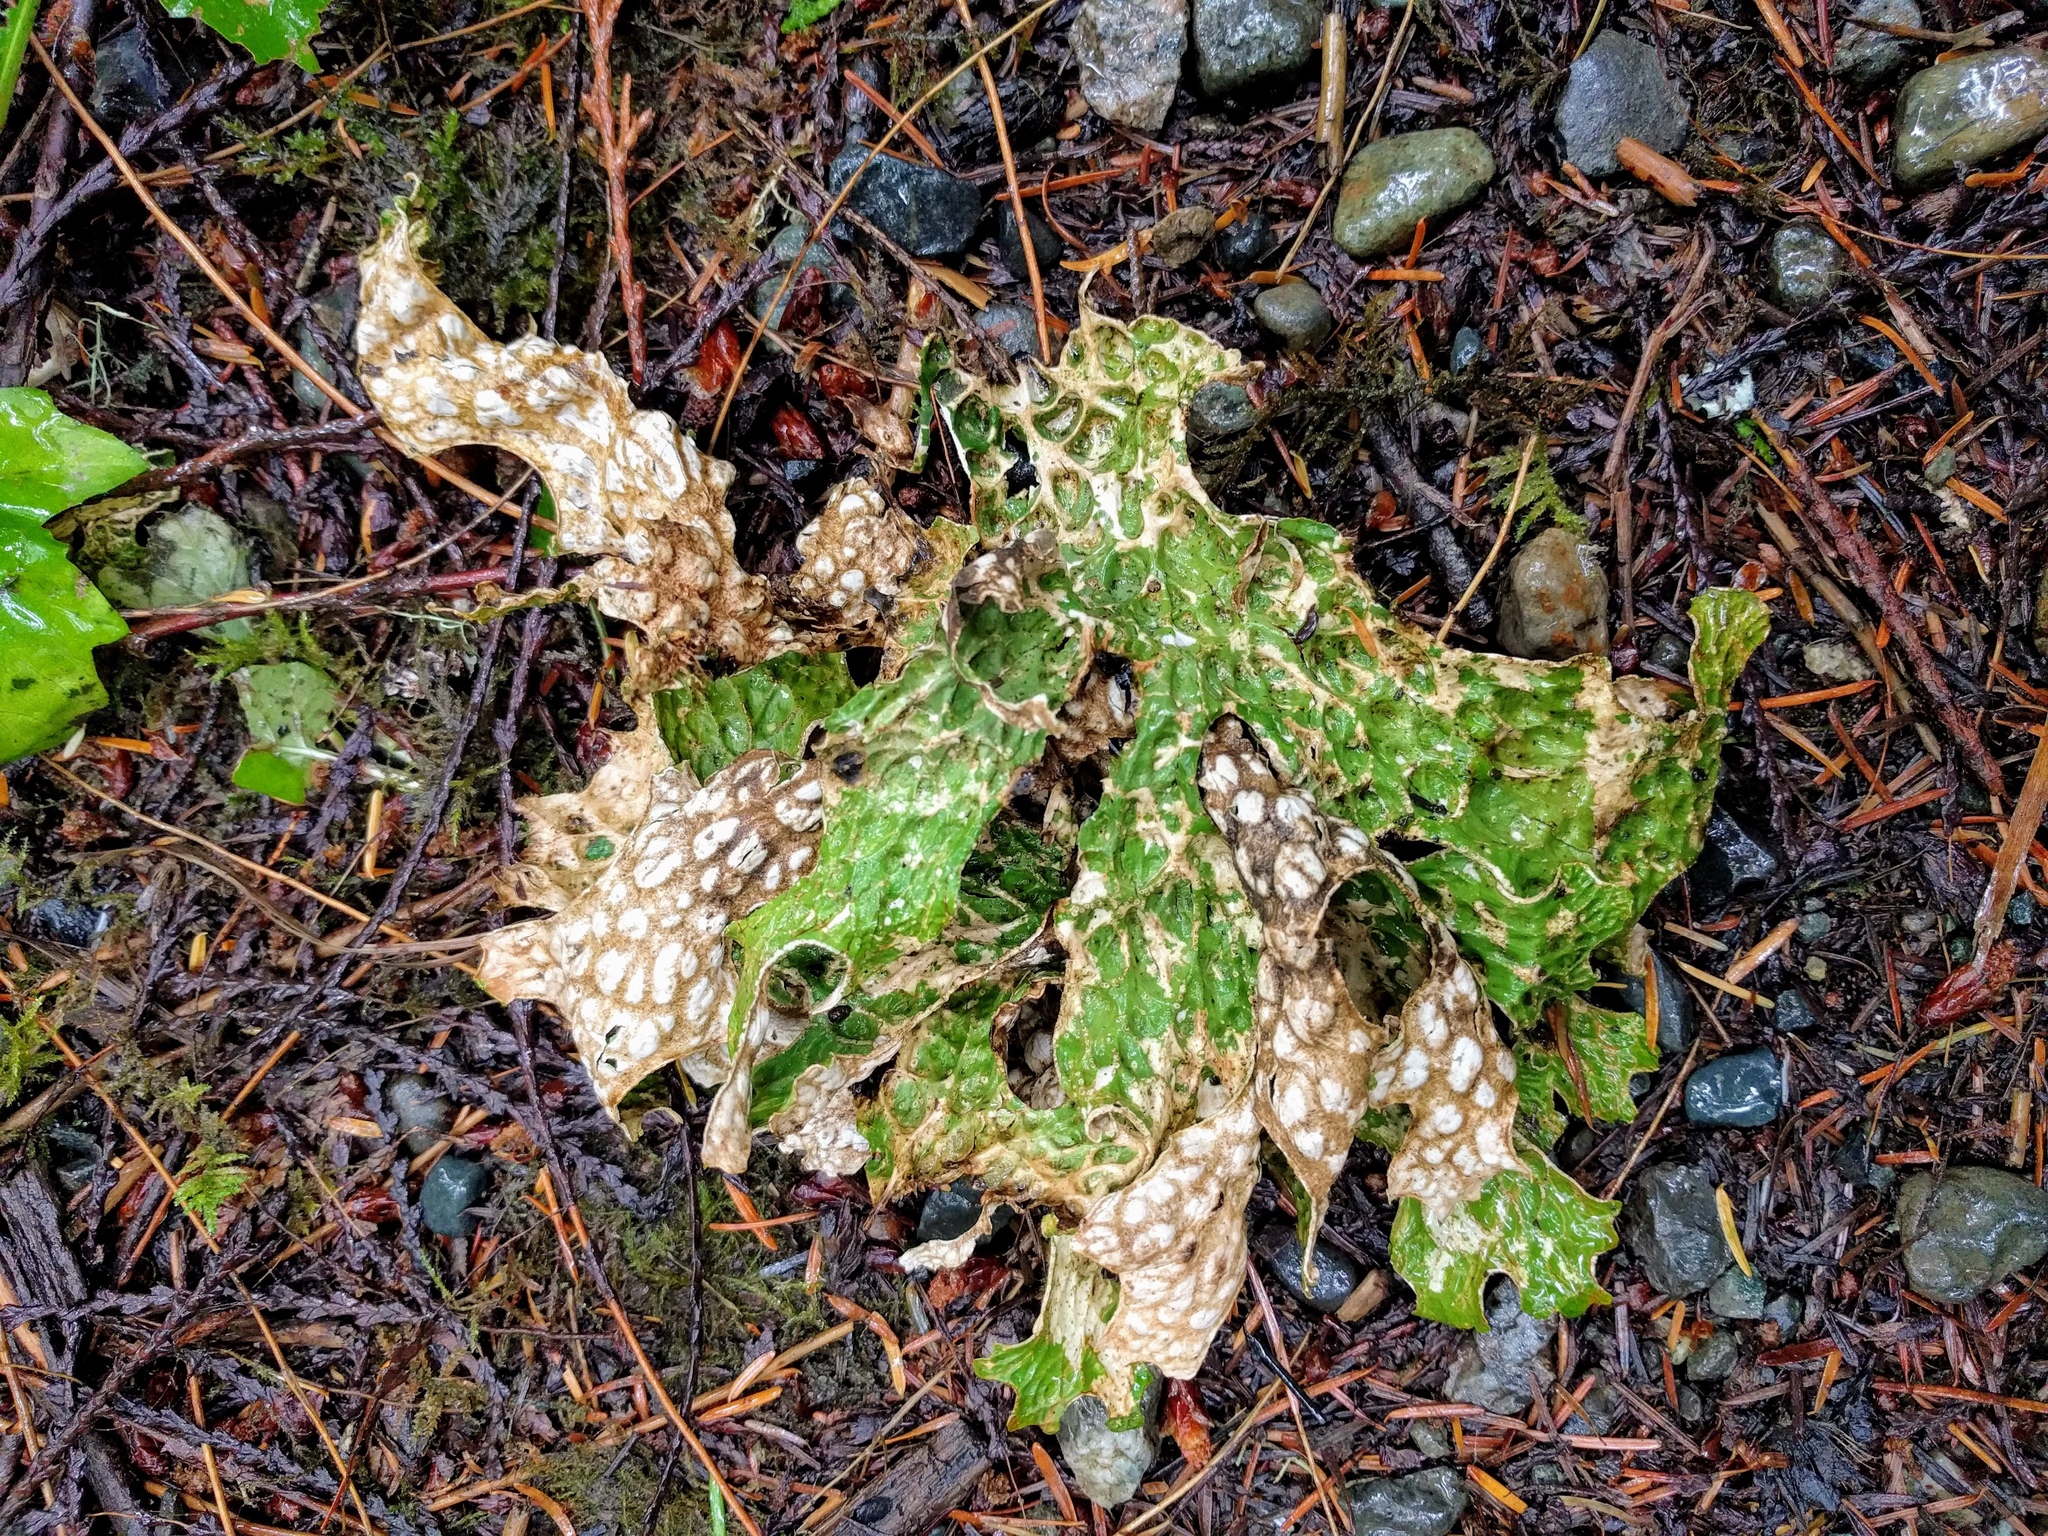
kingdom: Fungi
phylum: Ascomycota
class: Lecanoromycetes
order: Peltigerales
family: Lobariaceae
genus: Lobaria
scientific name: Lobaria pulmonaria
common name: Lungwort
